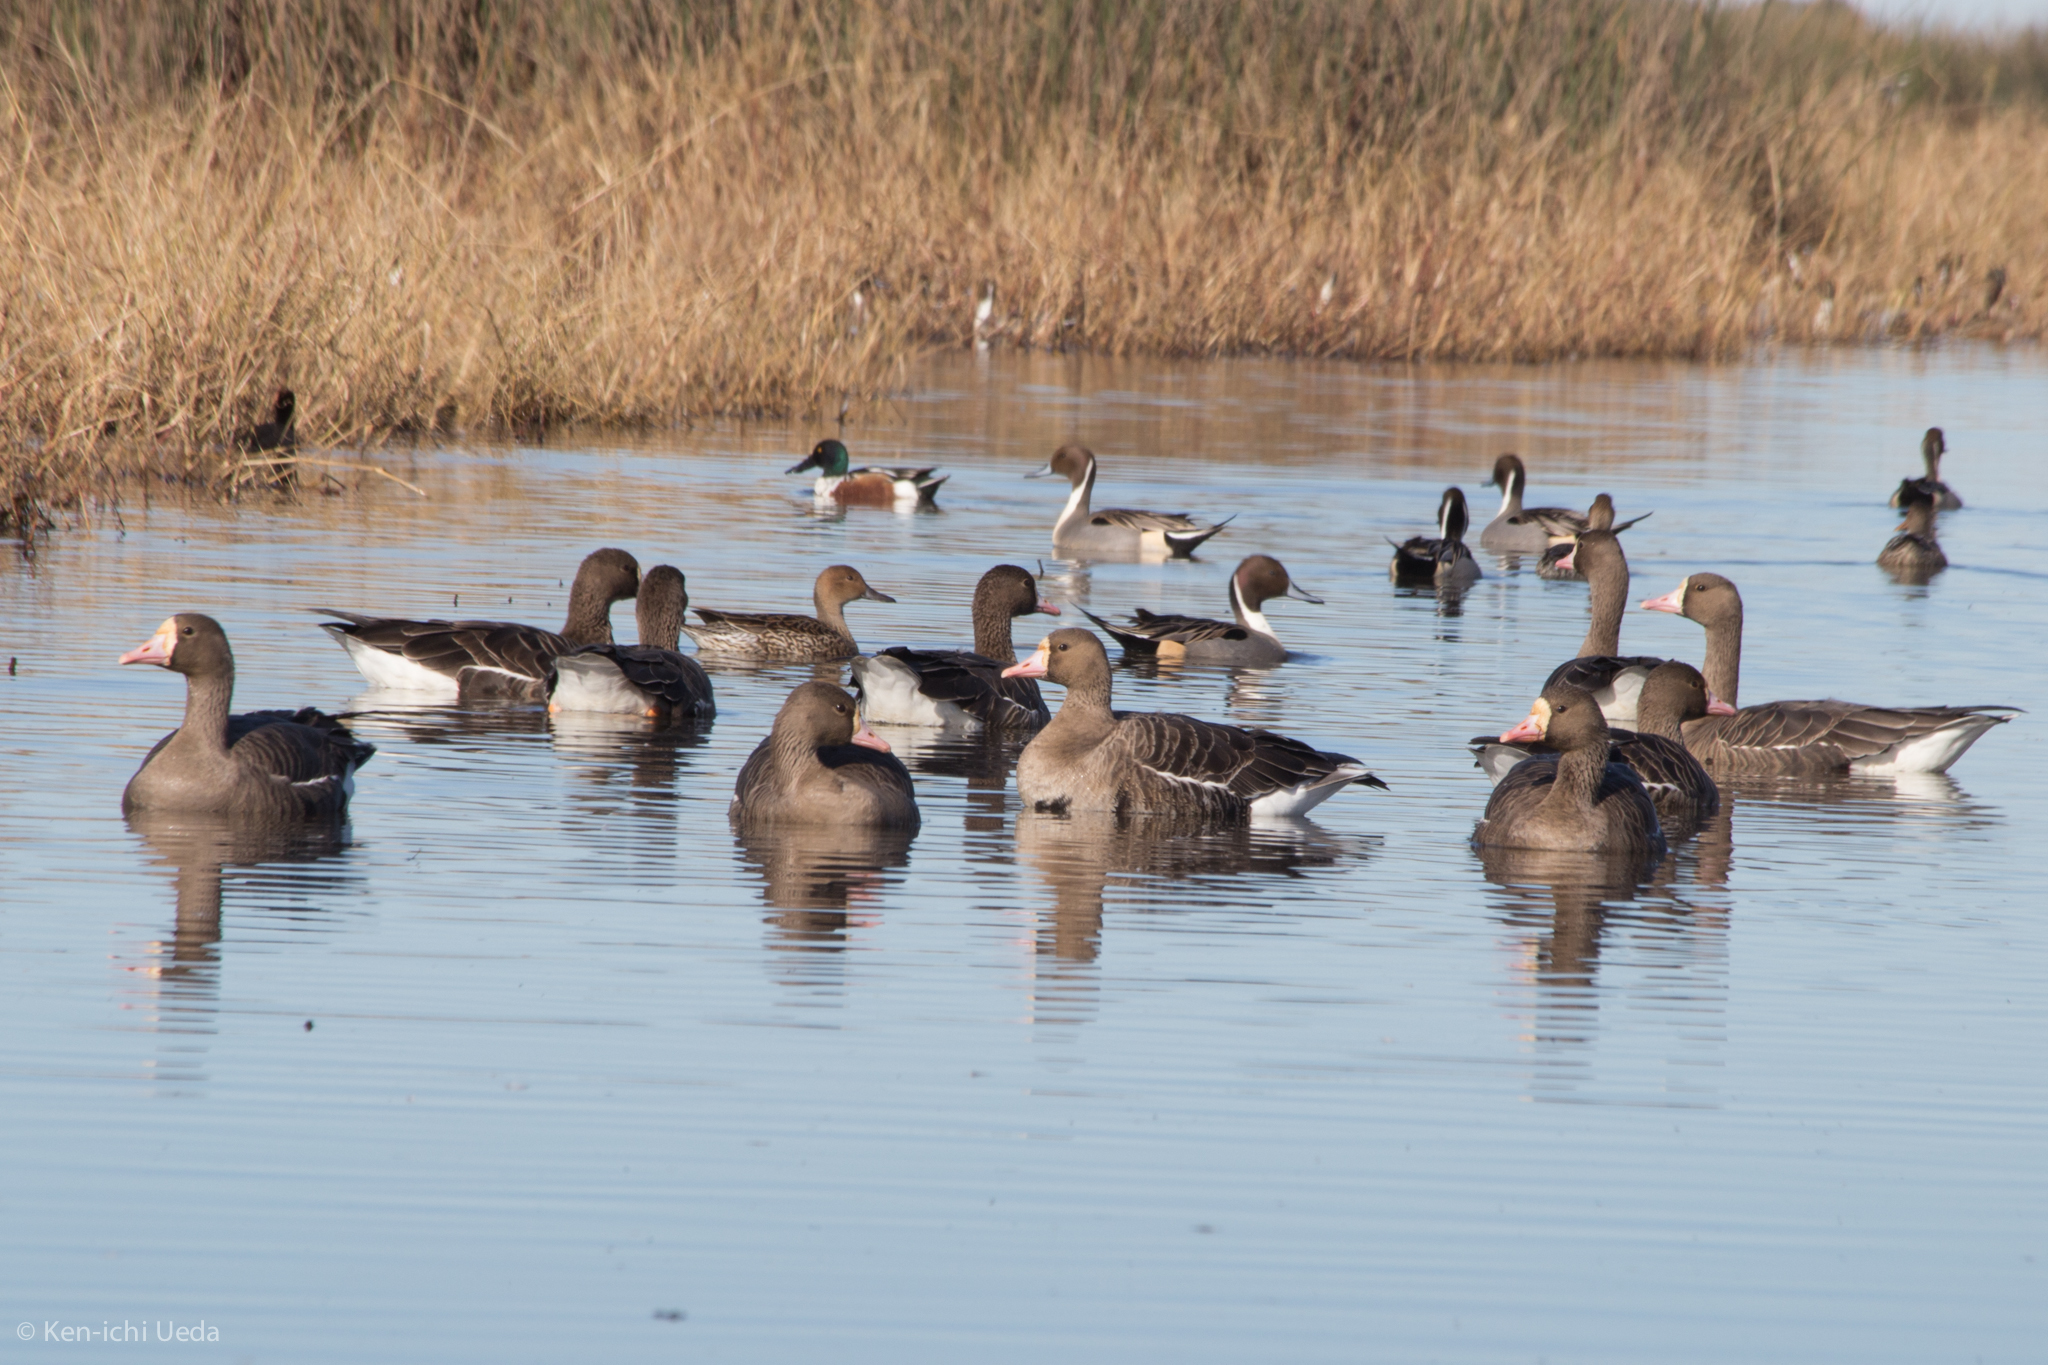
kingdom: Animalia
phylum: Chordata
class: Aves
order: Anseriformes
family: Anatidae
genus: Anser
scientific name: Anser albifrons
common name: Greater white-fronted goose
